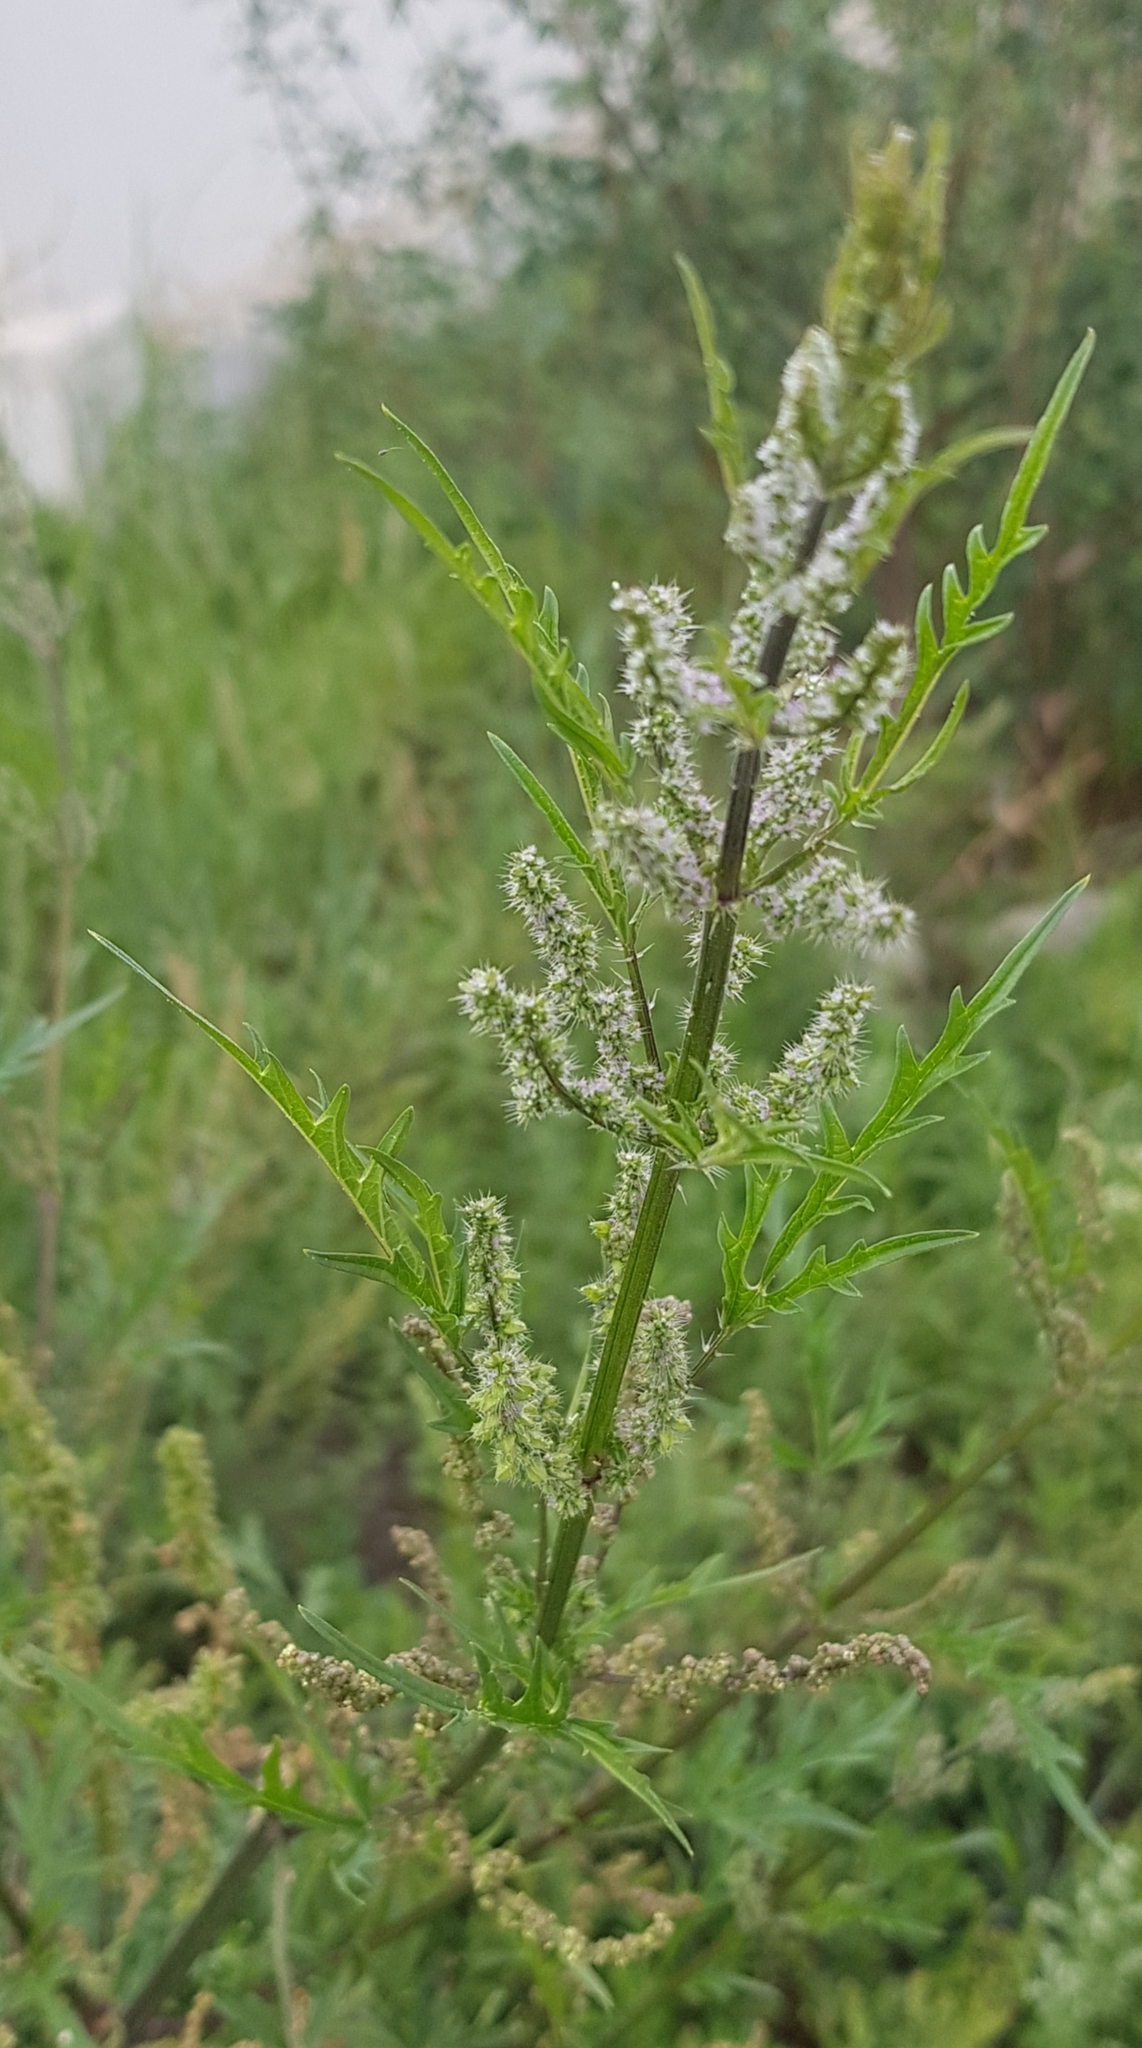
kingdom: Plantae
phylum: Tracheophyta
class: Magnoliopsida
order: Rosales
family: Urticaceae
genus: Urtica
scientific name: Urtica cannabina
